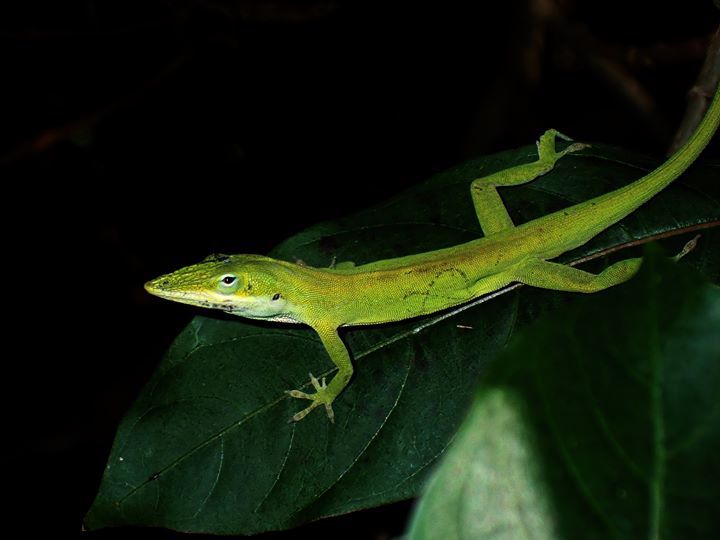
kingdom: Animalia
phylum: Chordata
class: Squamata
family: Dactyloidae
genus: Anolis
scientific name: Anolis carolinensis
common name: Green anole
